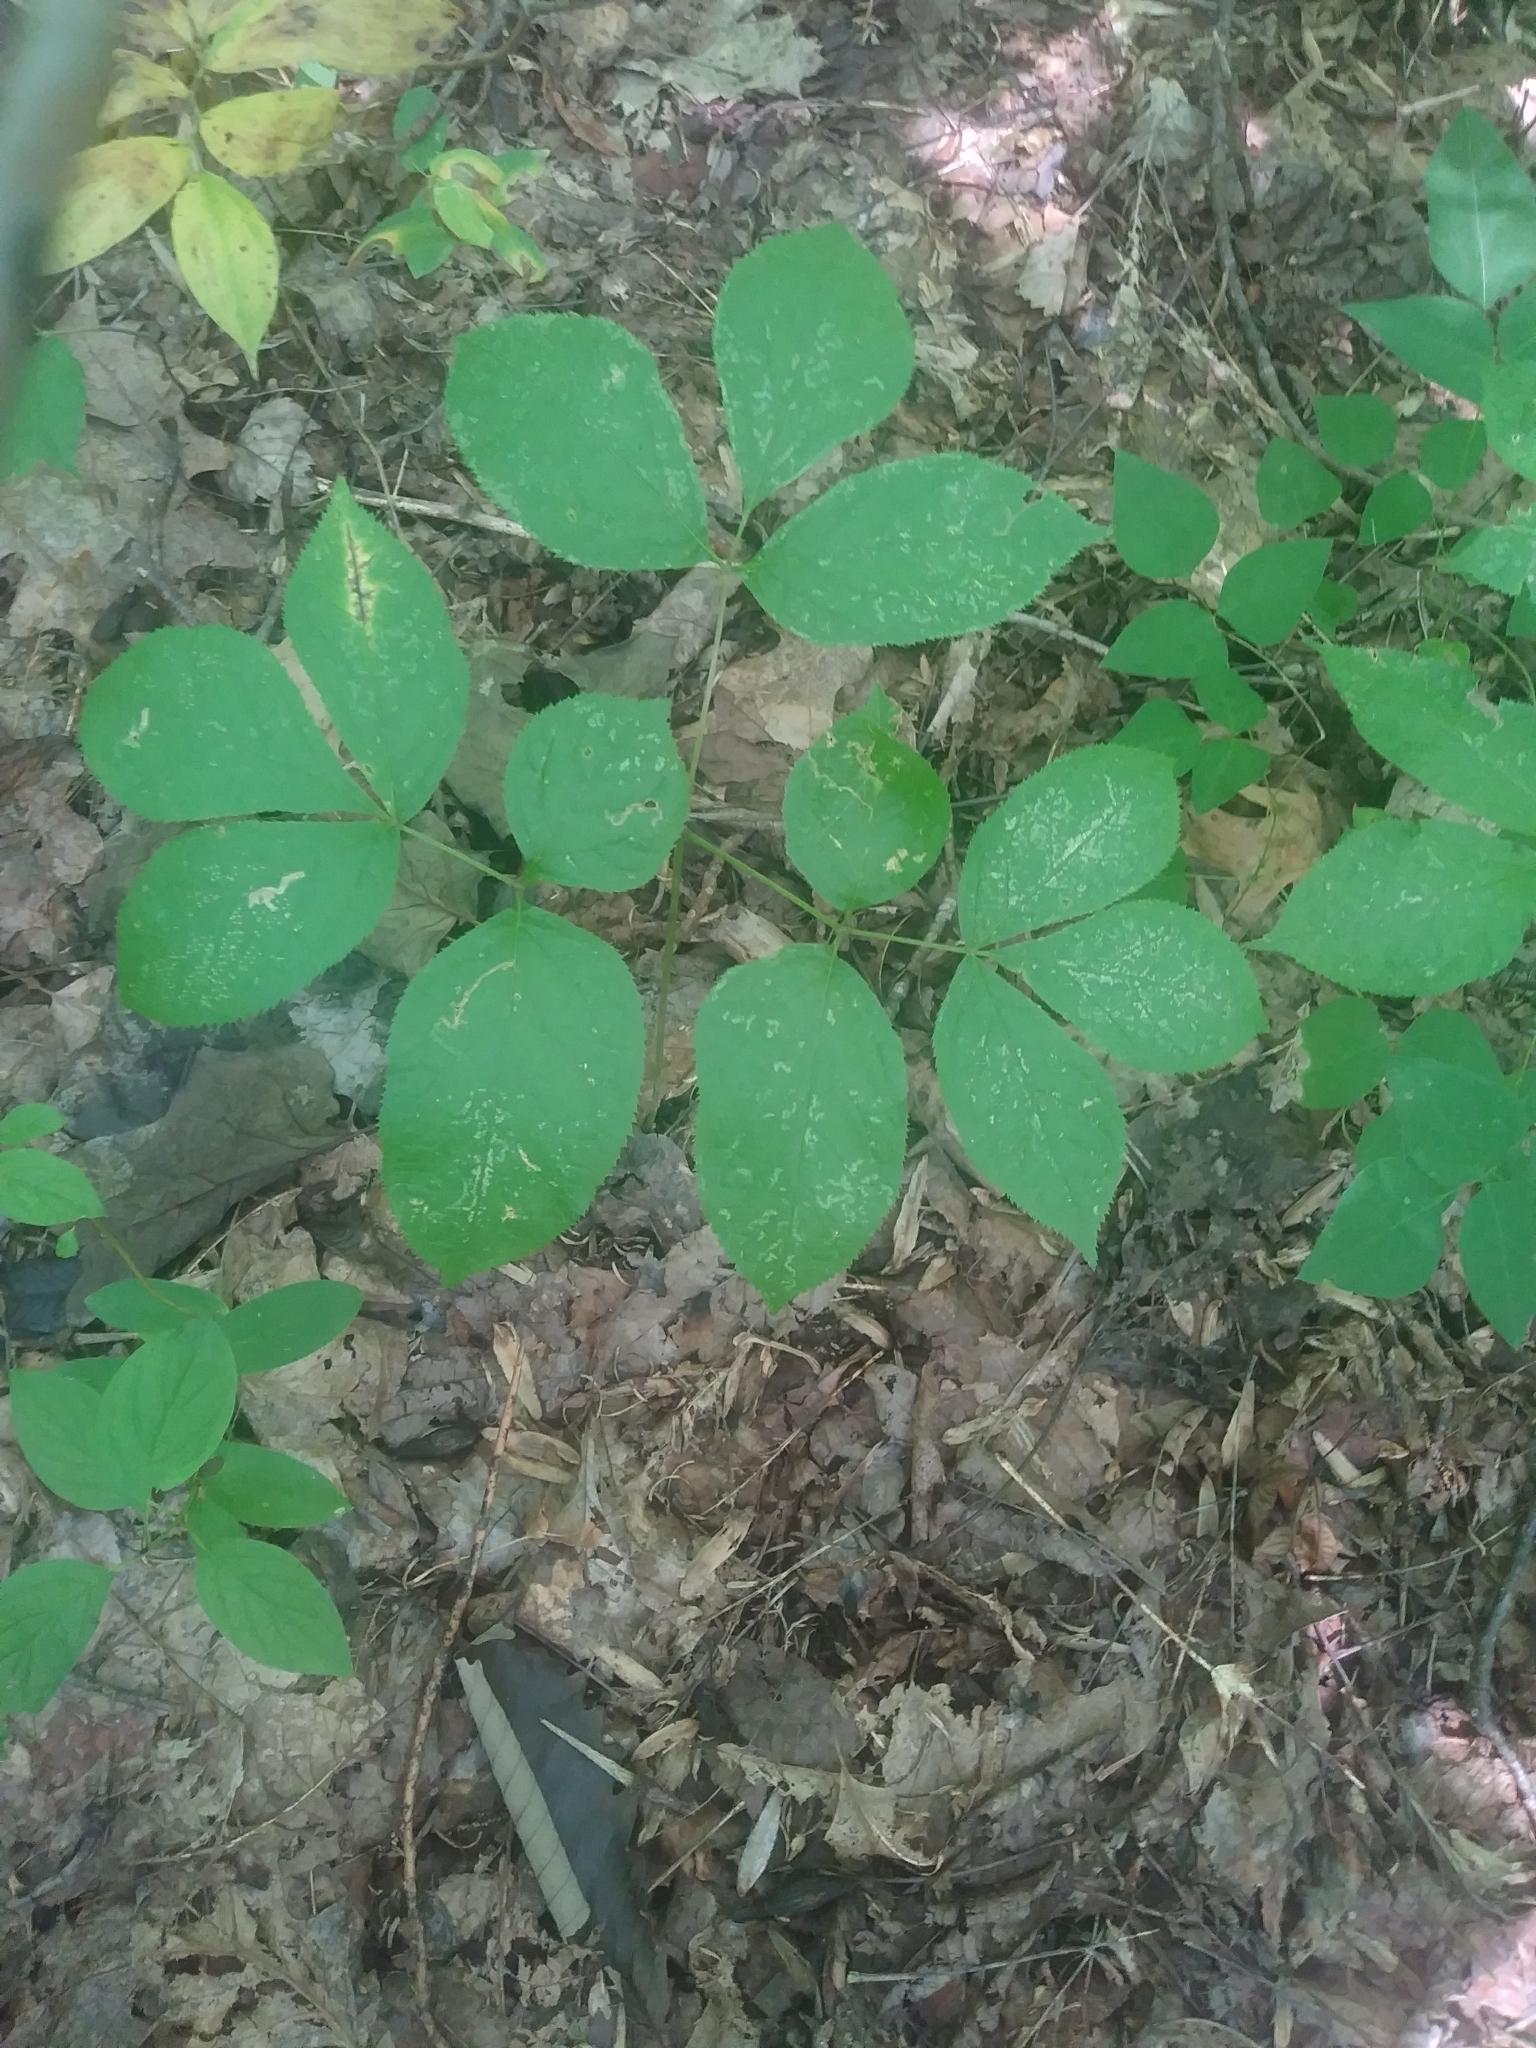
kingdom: Plantae
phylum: Tracheophyta
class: Magnoliopsida
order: Apiales
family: Araliaceae
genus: Aralia
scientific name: Aralia nudicaulis
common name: Wild sarsaparilla
